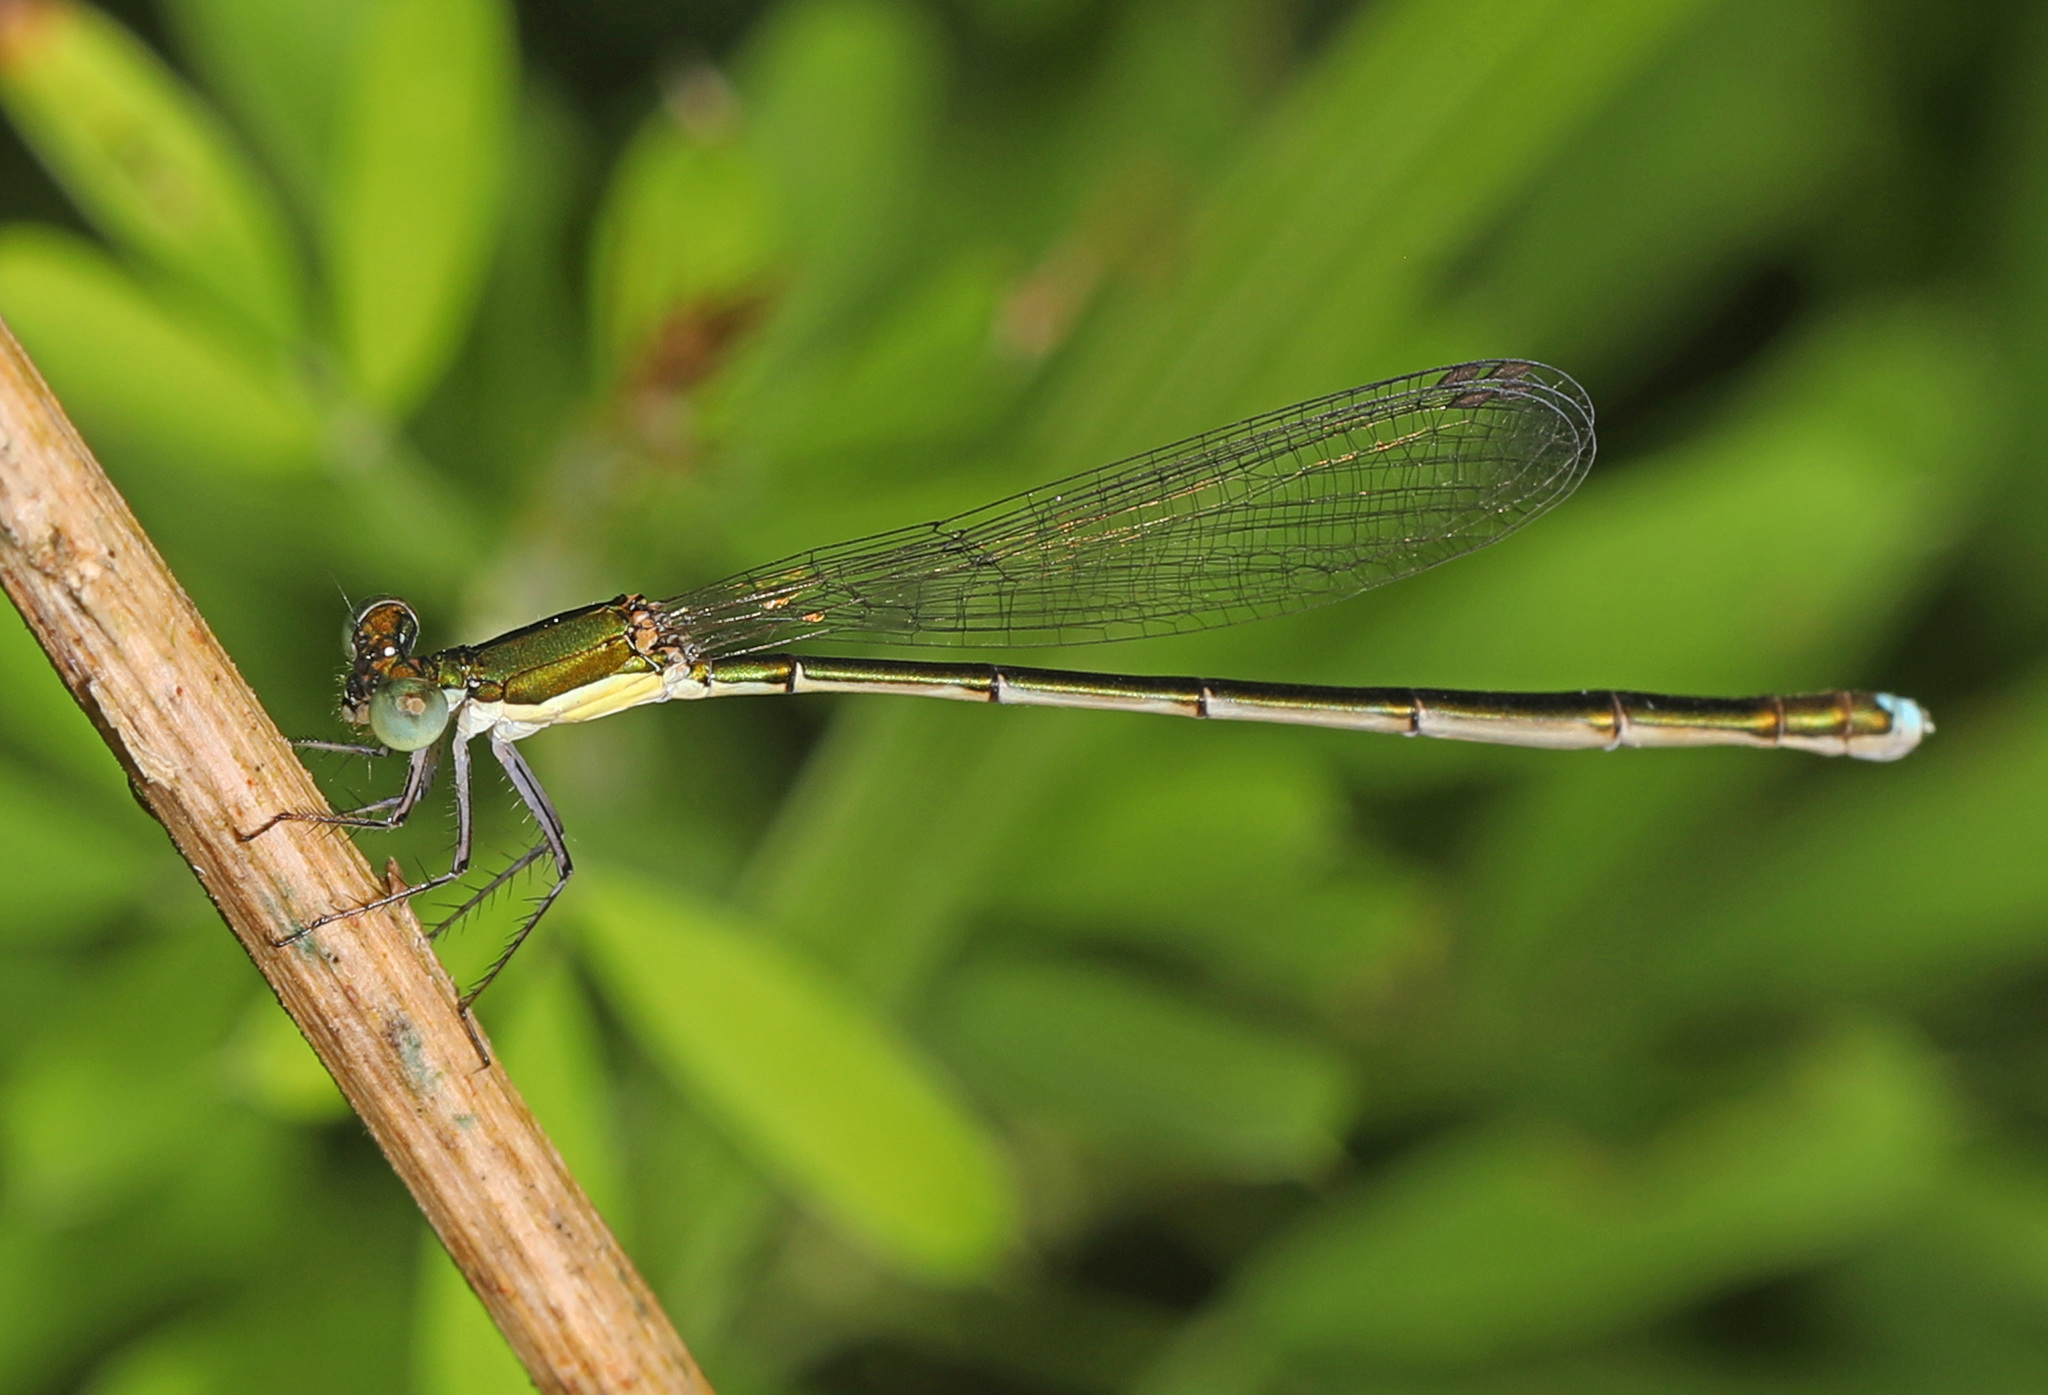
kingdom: Animalia
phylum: Arthropoda
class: Insecta
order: Odonata
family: Coenagrionidae
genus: Nehalennia
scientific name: Nehalennia integricollis
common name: Southern sprite
